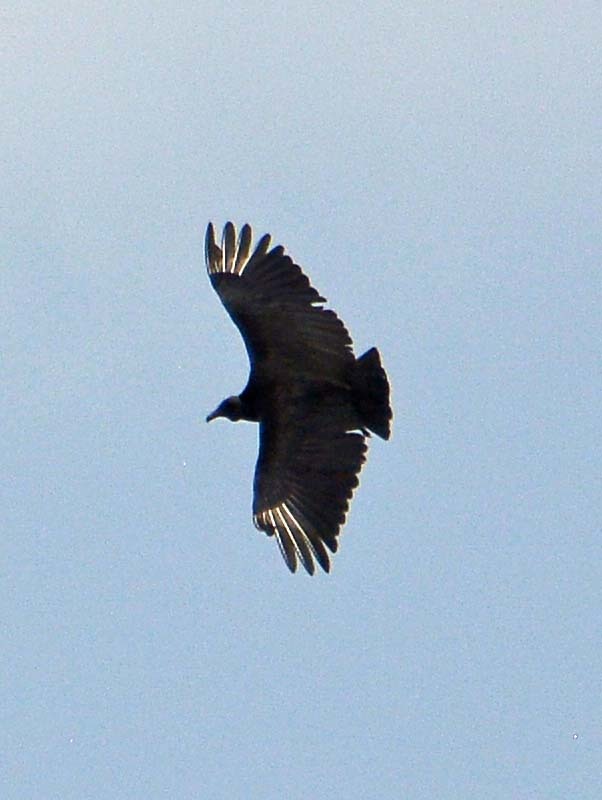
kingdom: Animalia
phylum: Chordata
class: Aves
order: Accipitriformes
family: Cathartidae
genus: Coragyps
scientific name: Coragyps atratus
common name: Black vulture
